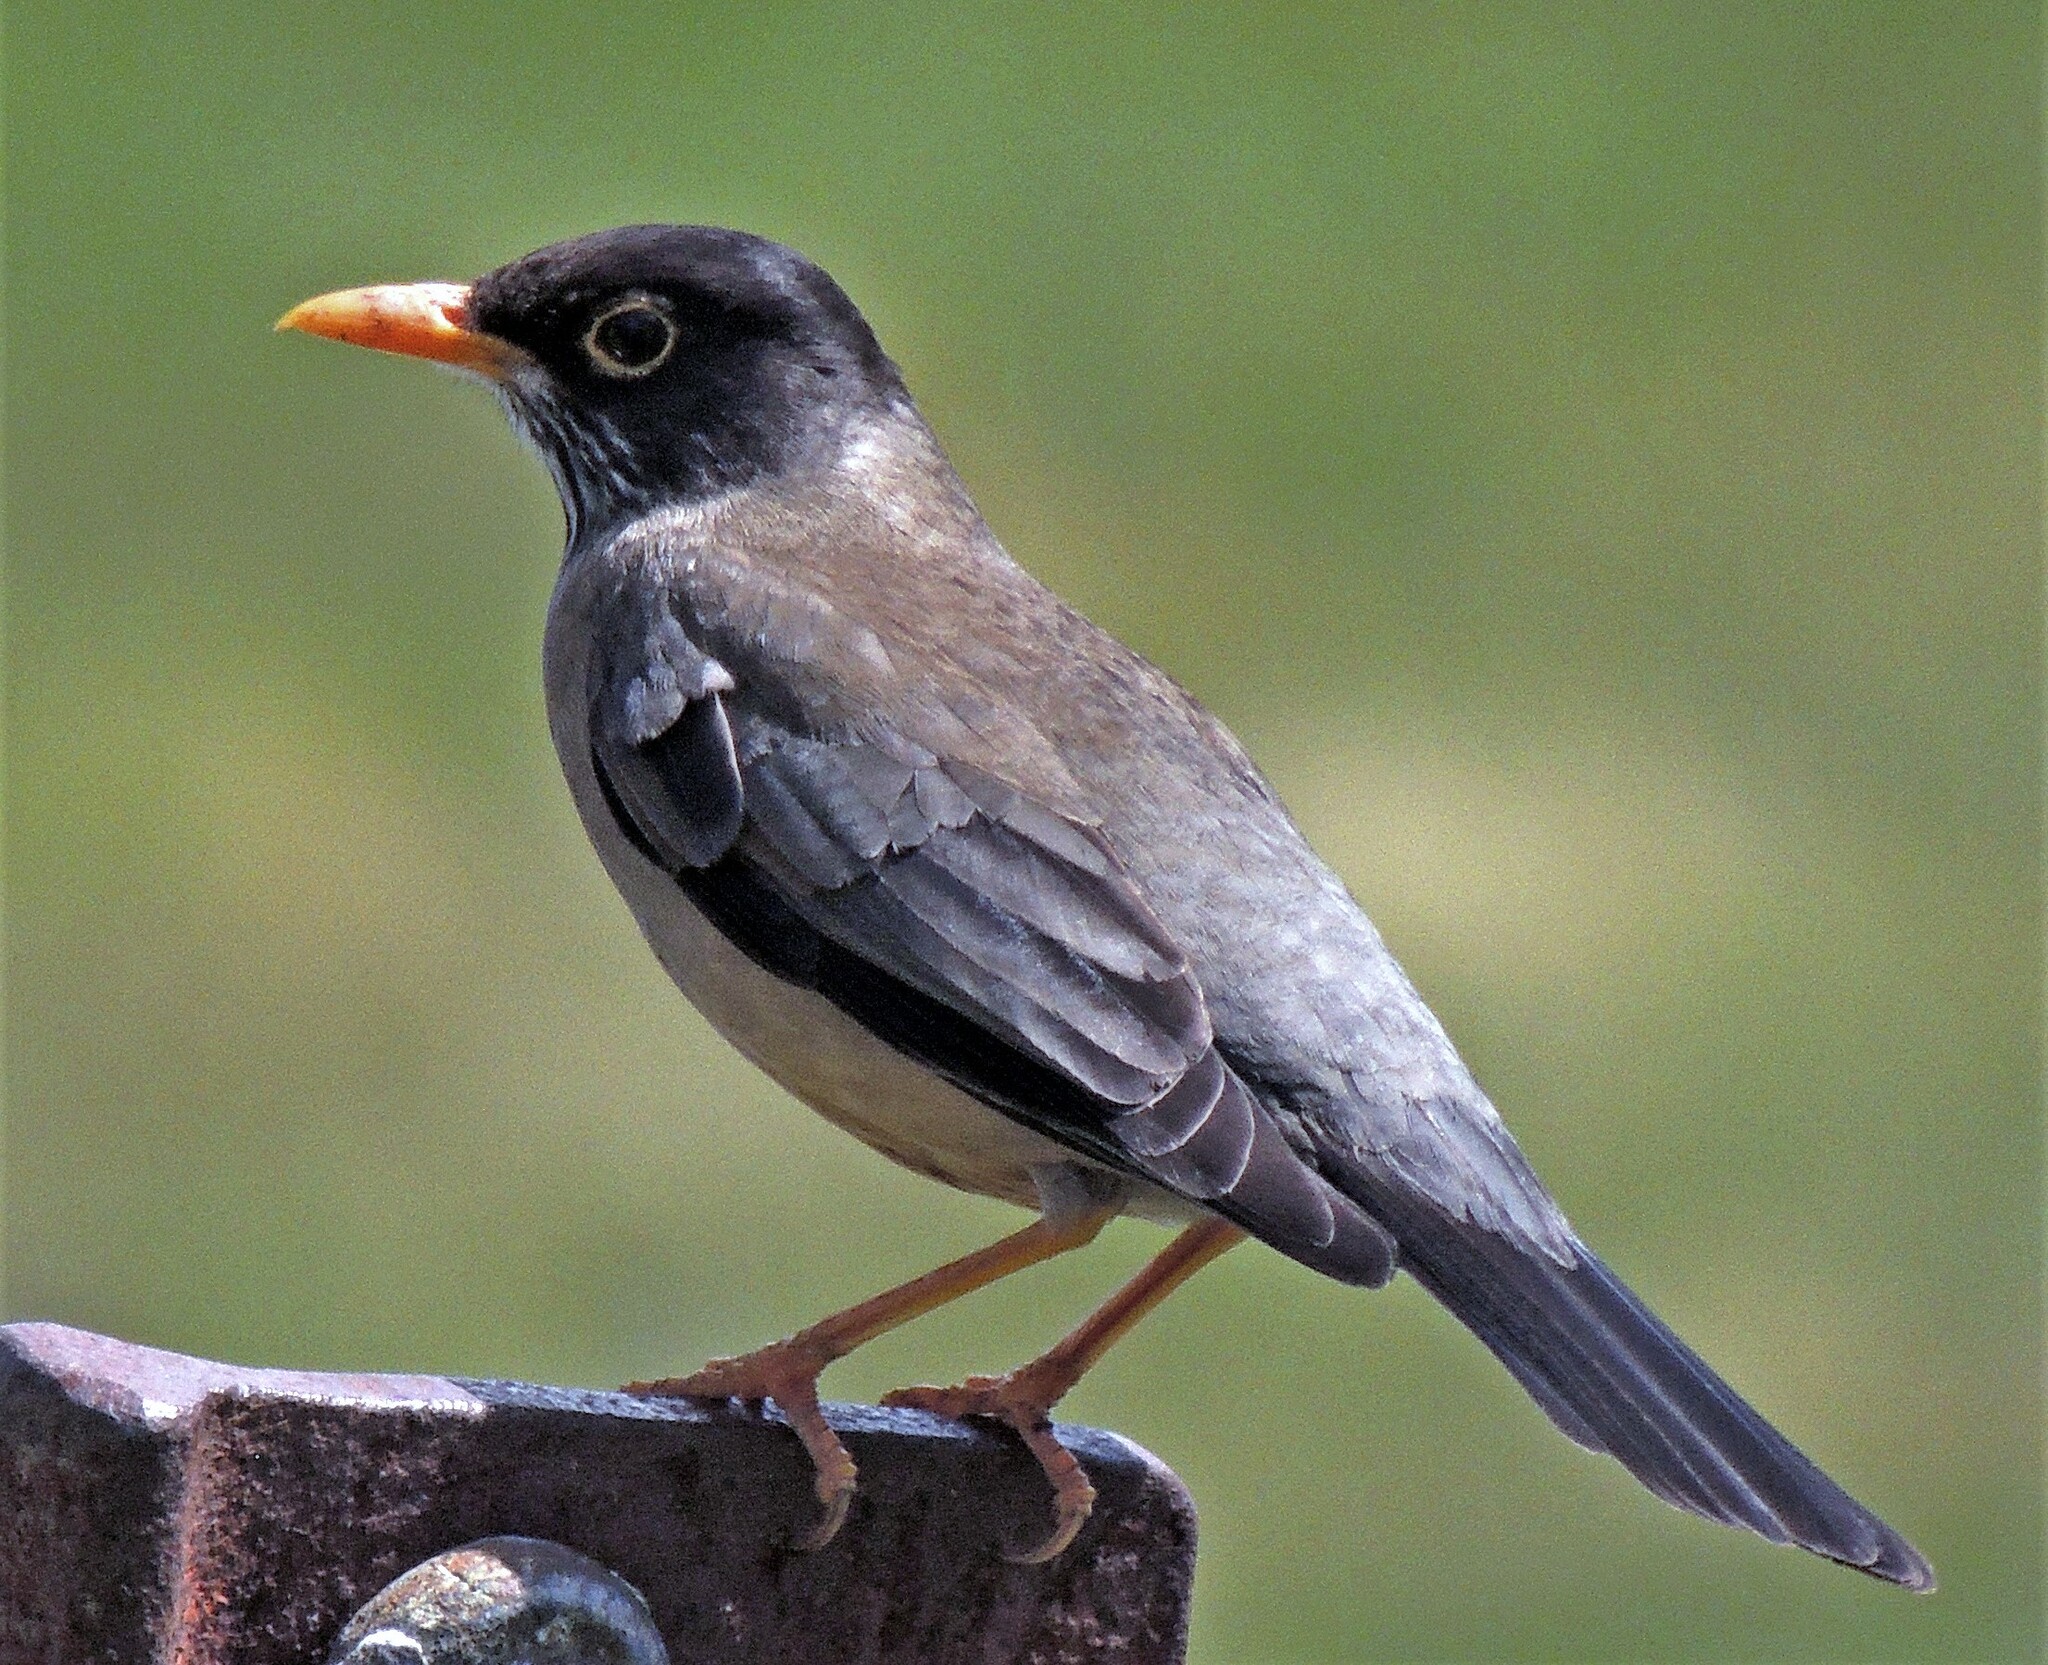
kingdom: Animalia
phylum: Chordata
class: Aves
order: Passeriformes
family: Turdidae
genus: Turdus
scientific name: Turdus falcklandii
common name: Austral thrush
